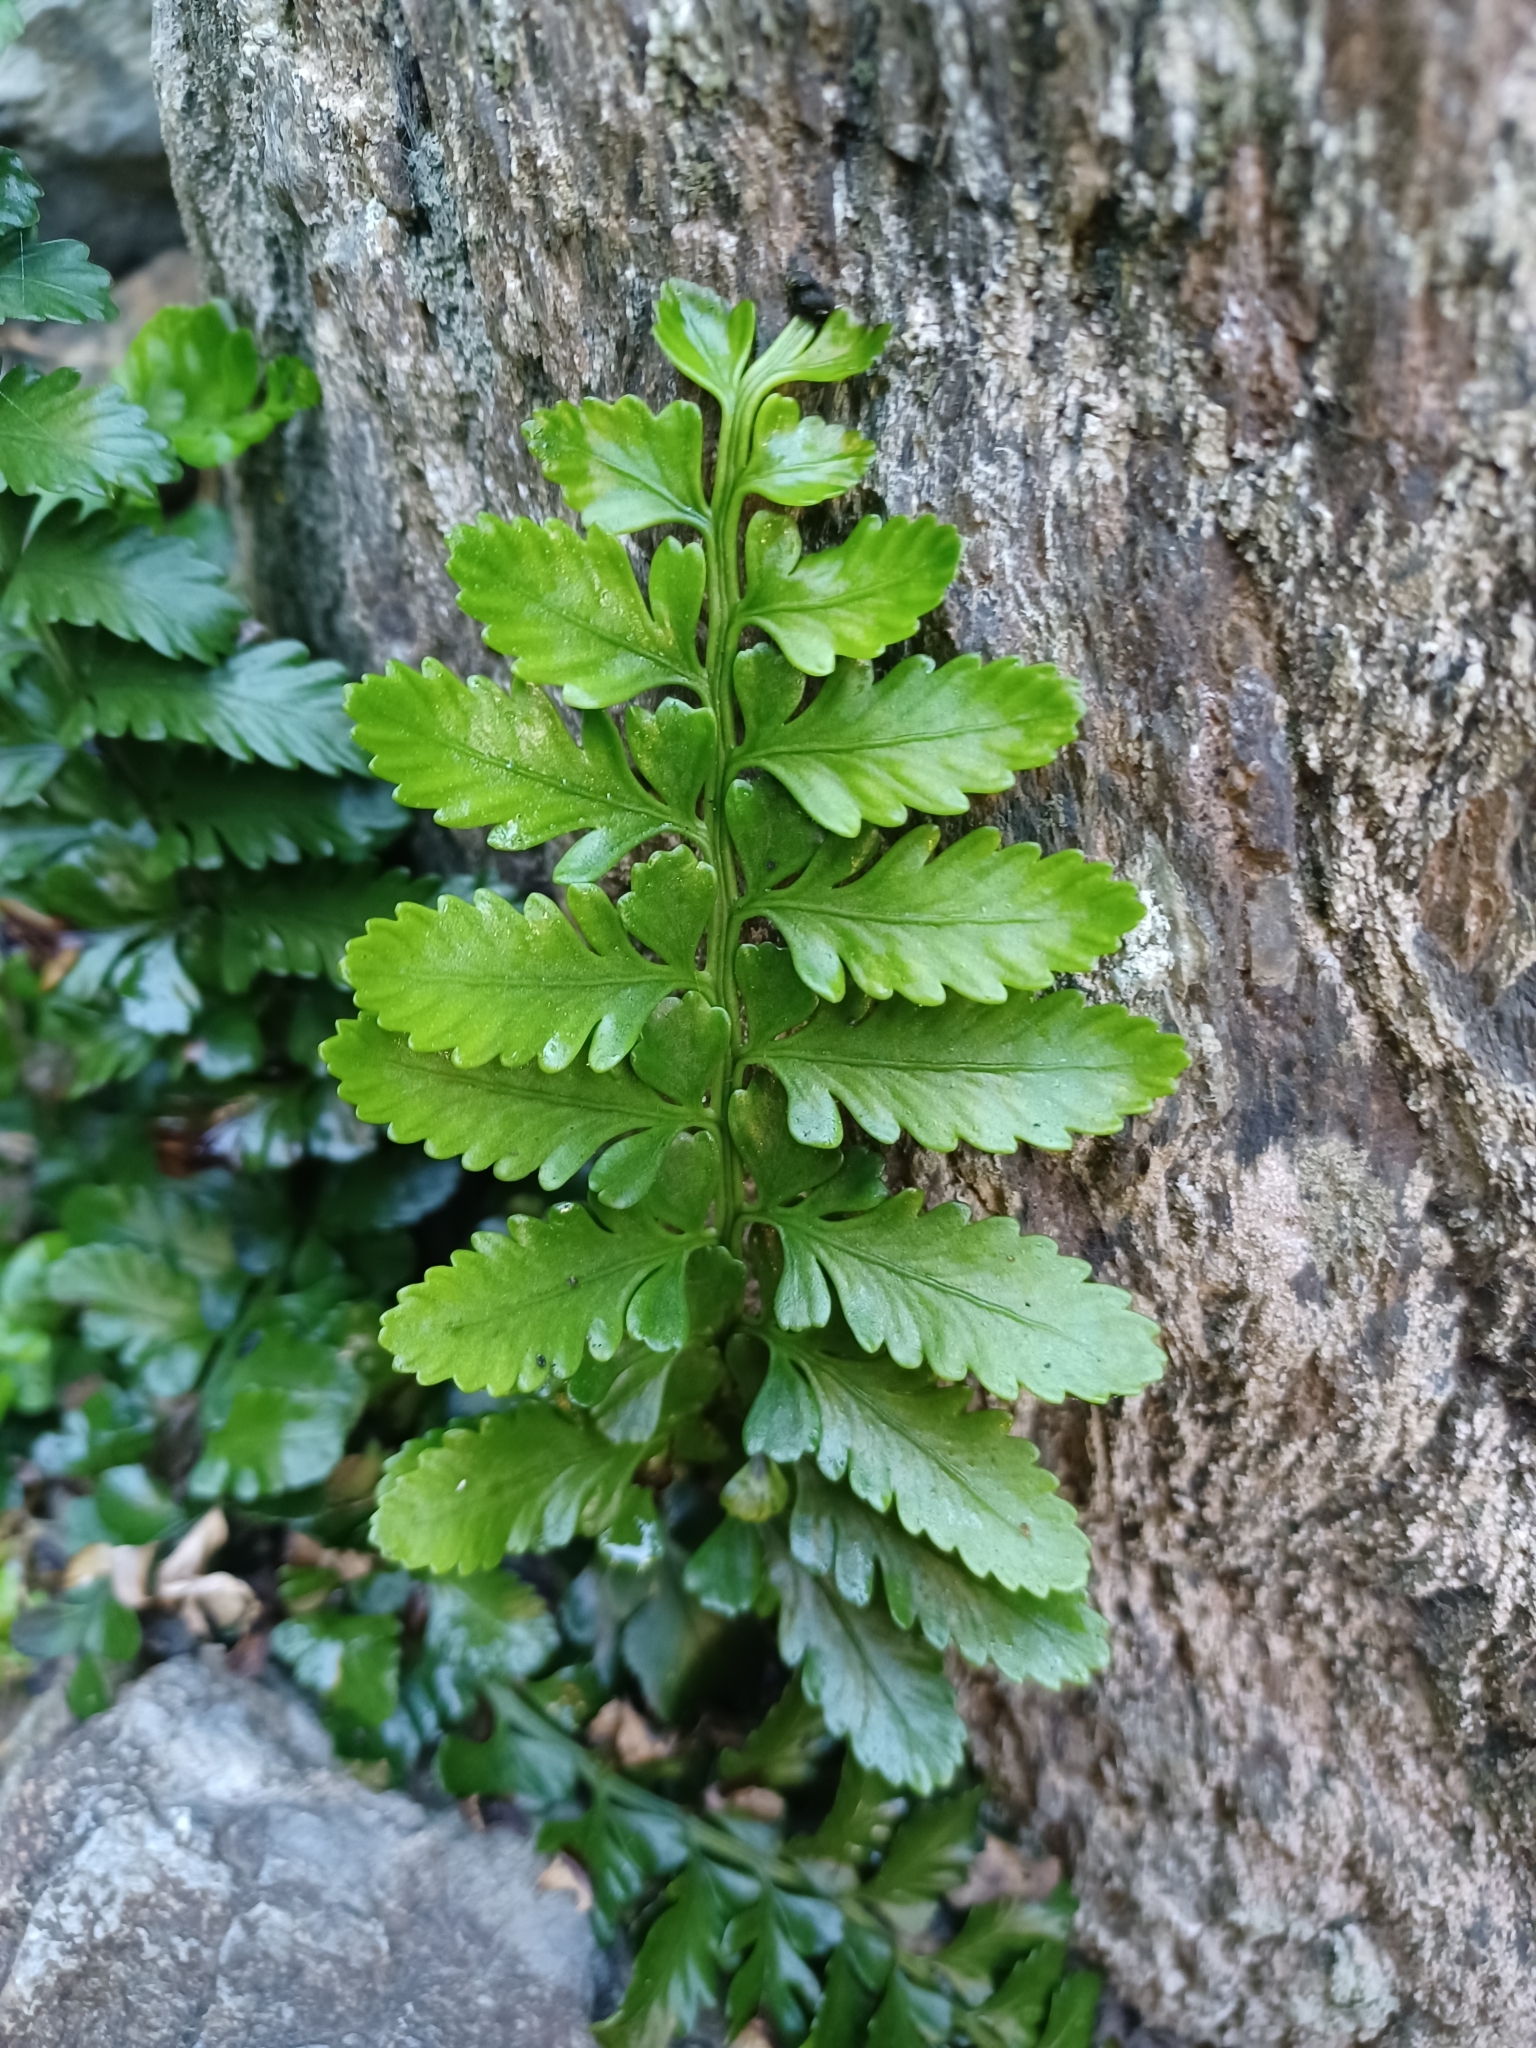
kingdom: Plantae
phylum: Tracheophyta
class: Polypodiopsida
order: Polypodiales
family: Aspleniaceae
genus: Asplenium
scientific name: Asplenium difforme
